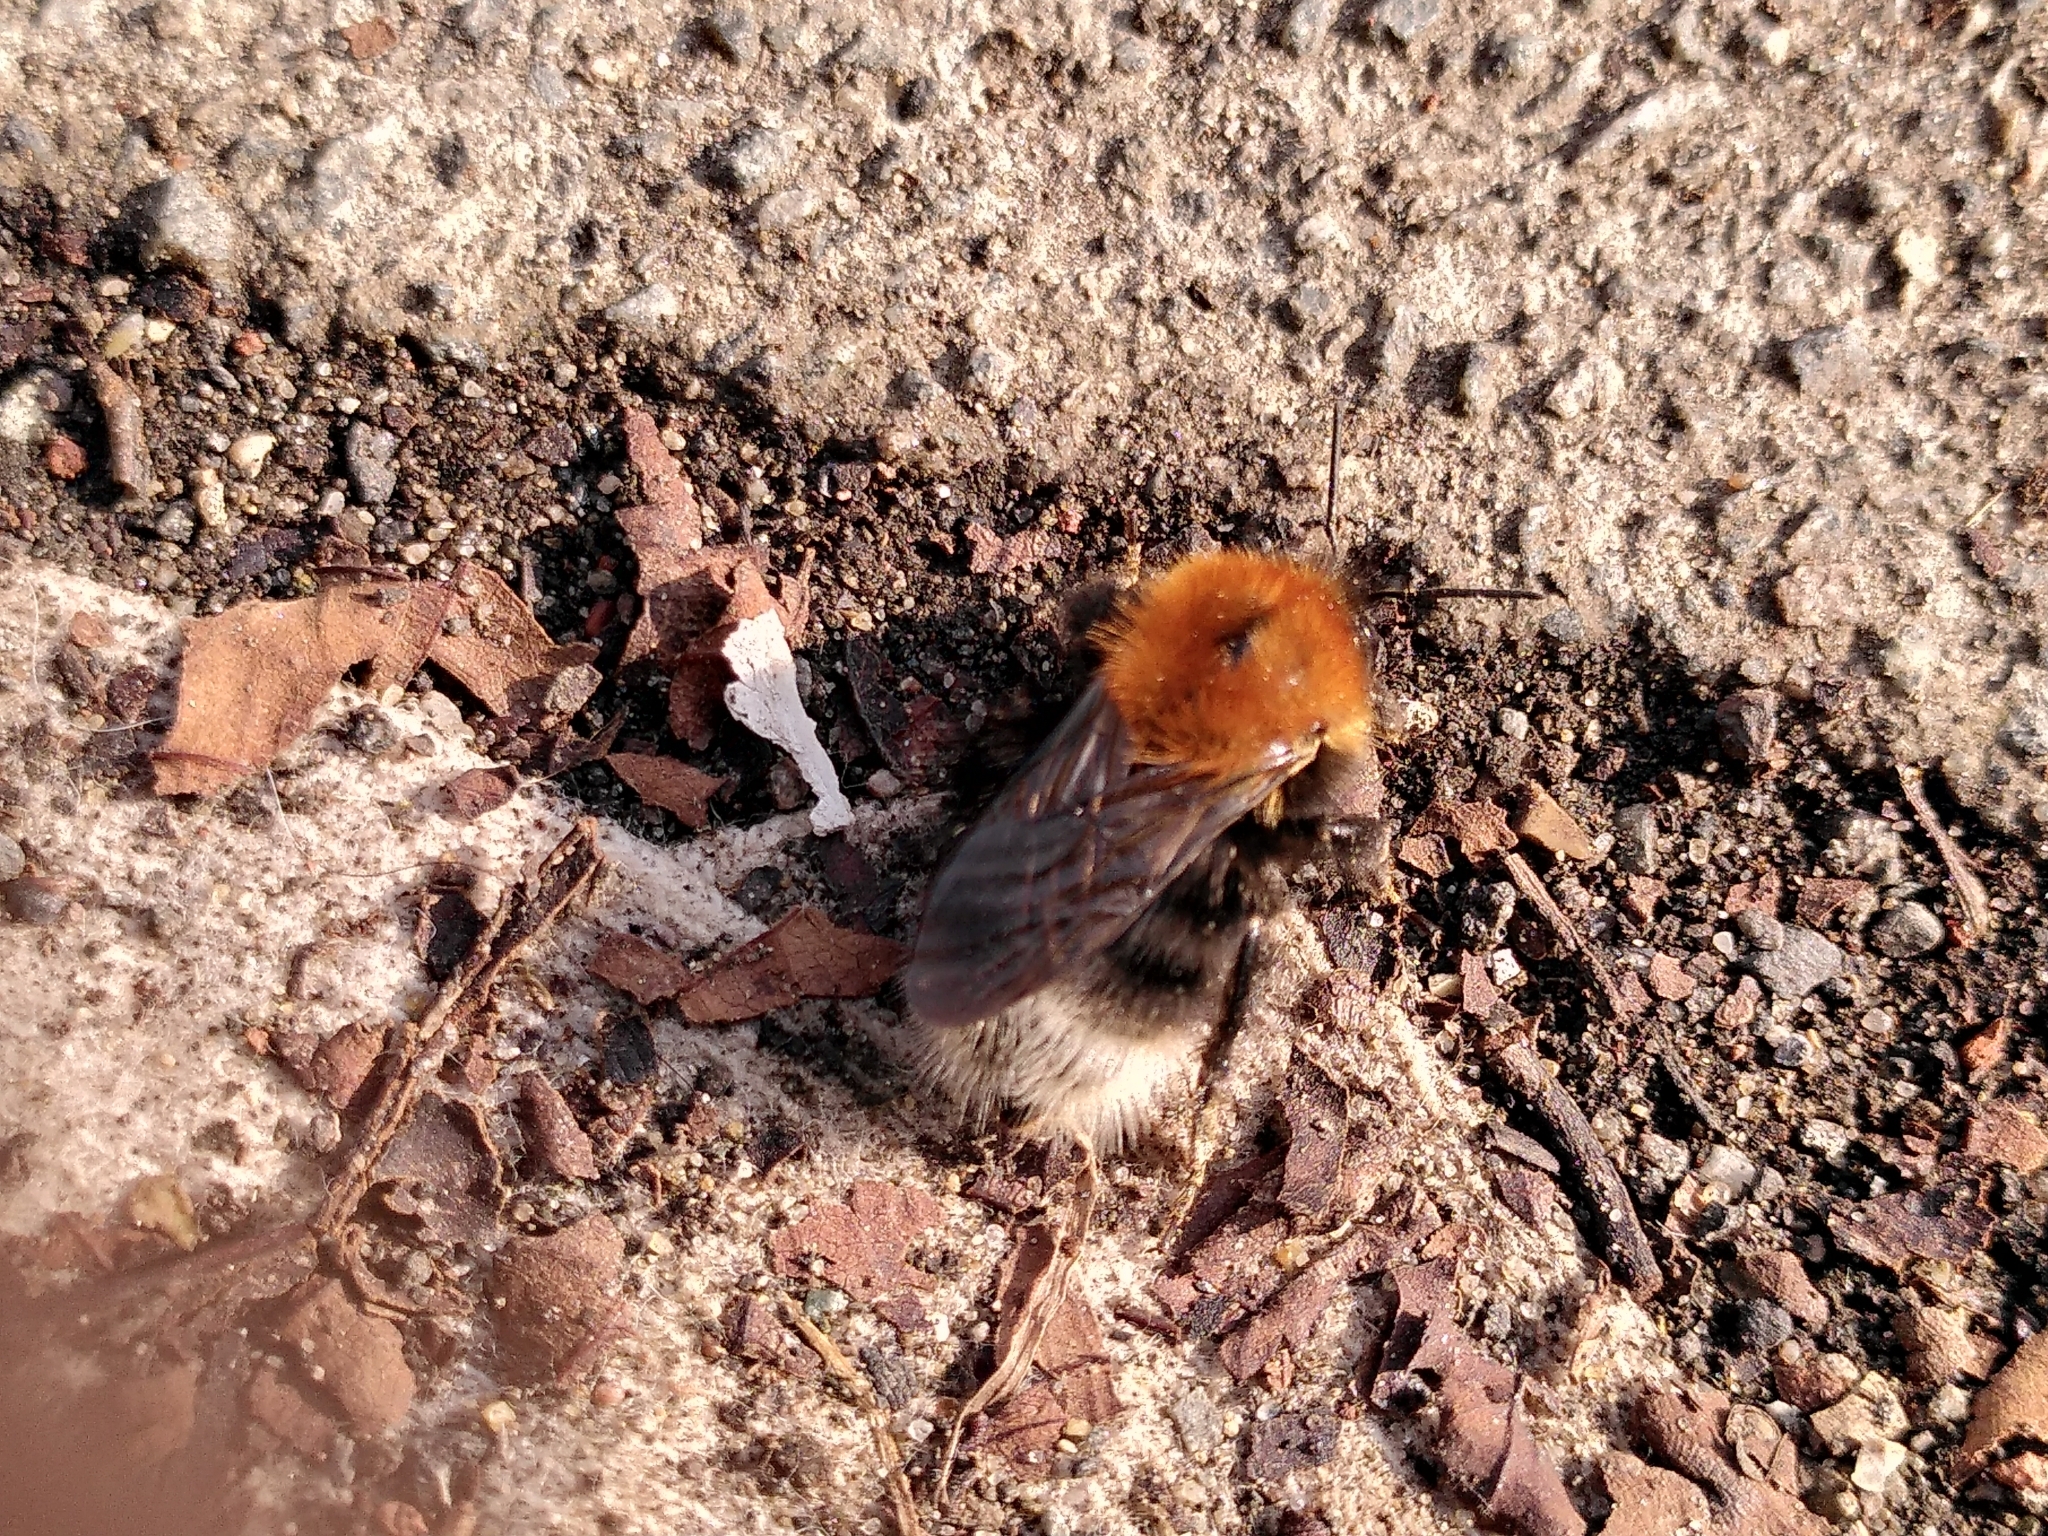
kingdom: Animalia
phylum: Arthropoda
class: Insecta
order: Hymenoptera
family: Apidae
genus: Bombus
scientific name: Bombus hypnorum
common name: New garden bumblebee
